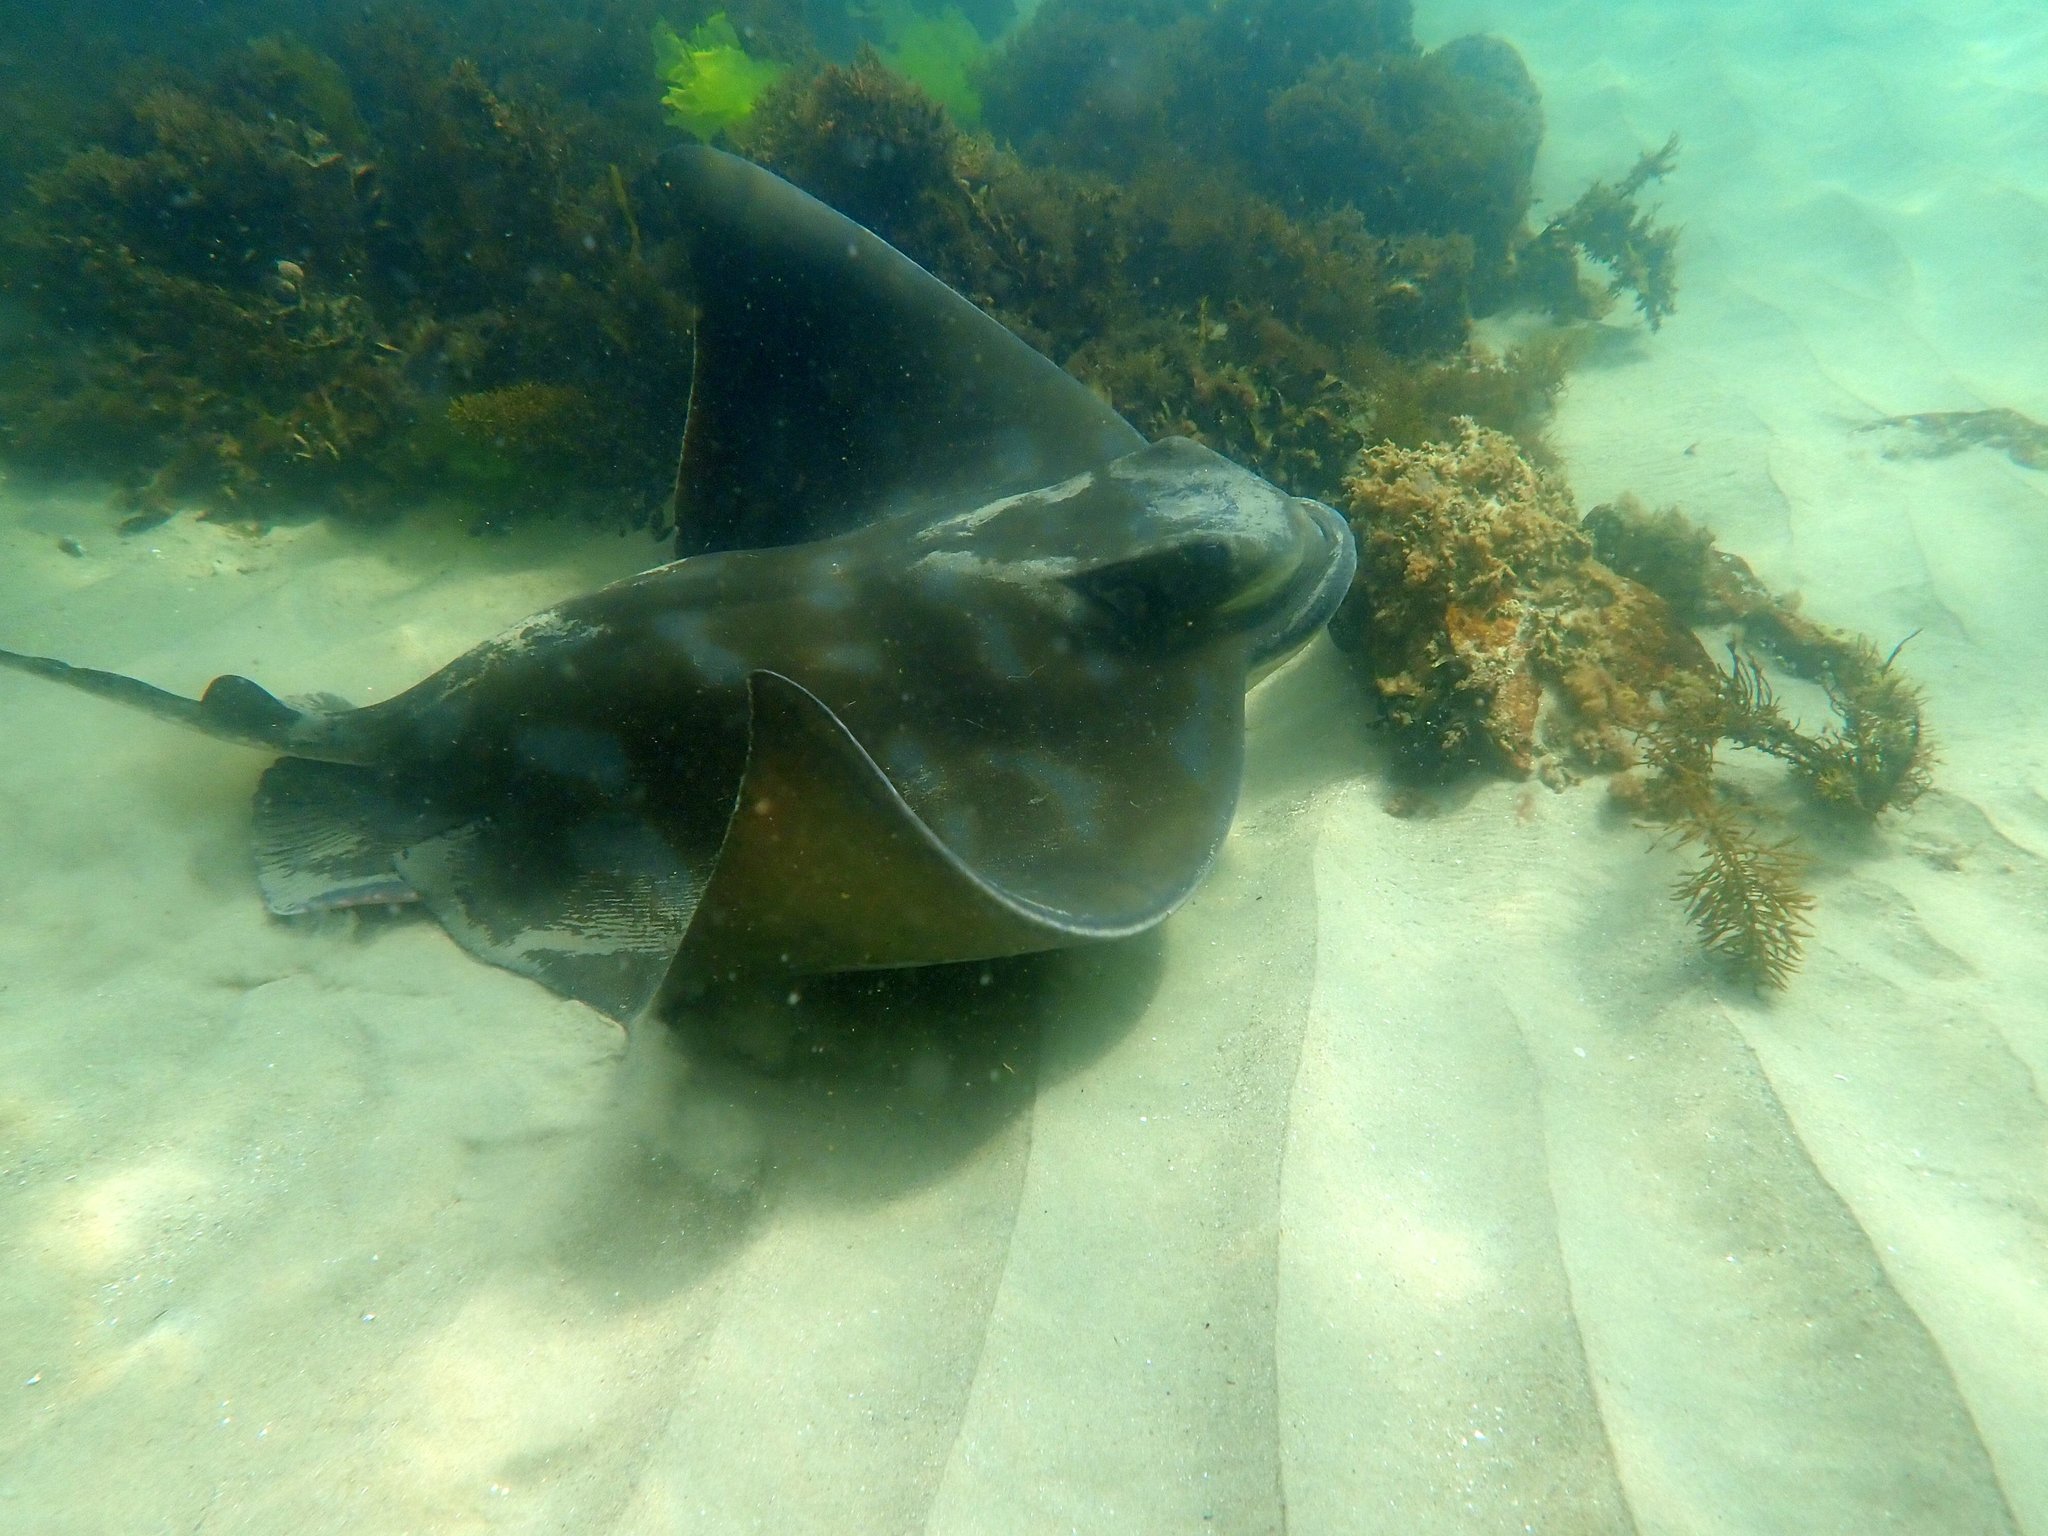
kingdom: Animalia
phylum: Chordata
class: Elasmobranchii
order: Myliobatiformes
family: Myliobatidae
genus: Myliobatis
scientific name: Myliobatis tenuicaudatus
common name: Eagle ray
